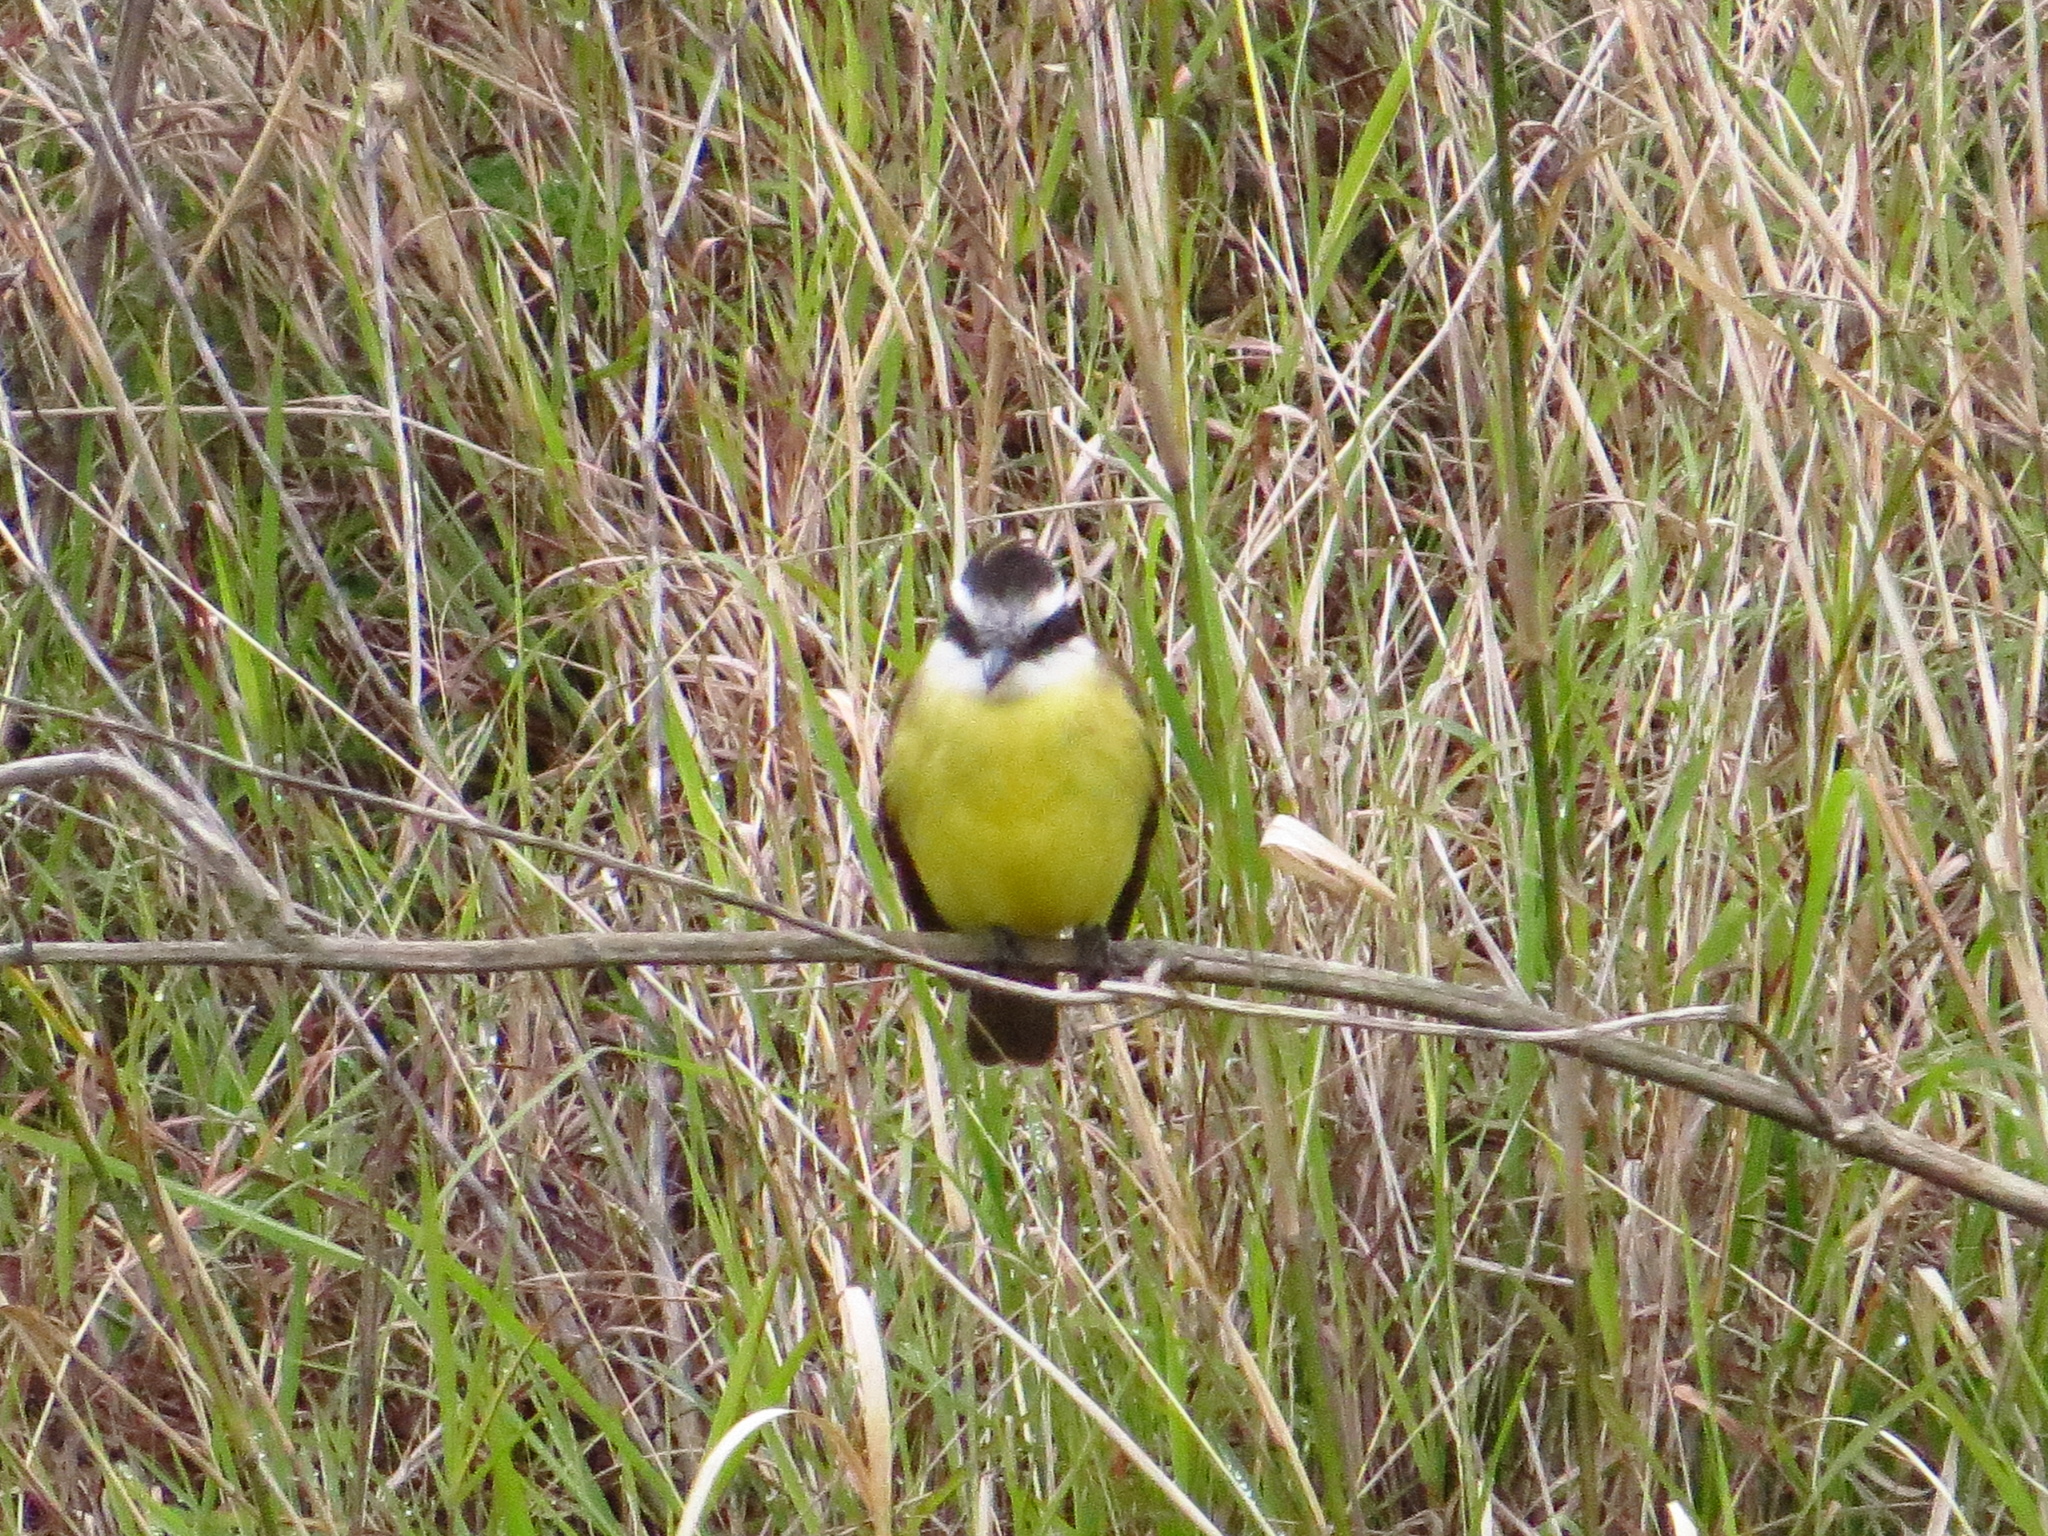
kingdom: Animalia
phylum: Chordata
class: Aves
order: Passeriformes
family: Tyrannidae
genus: Pitangus
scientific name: Pitangus sulphuratus
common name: Great kiskadee
